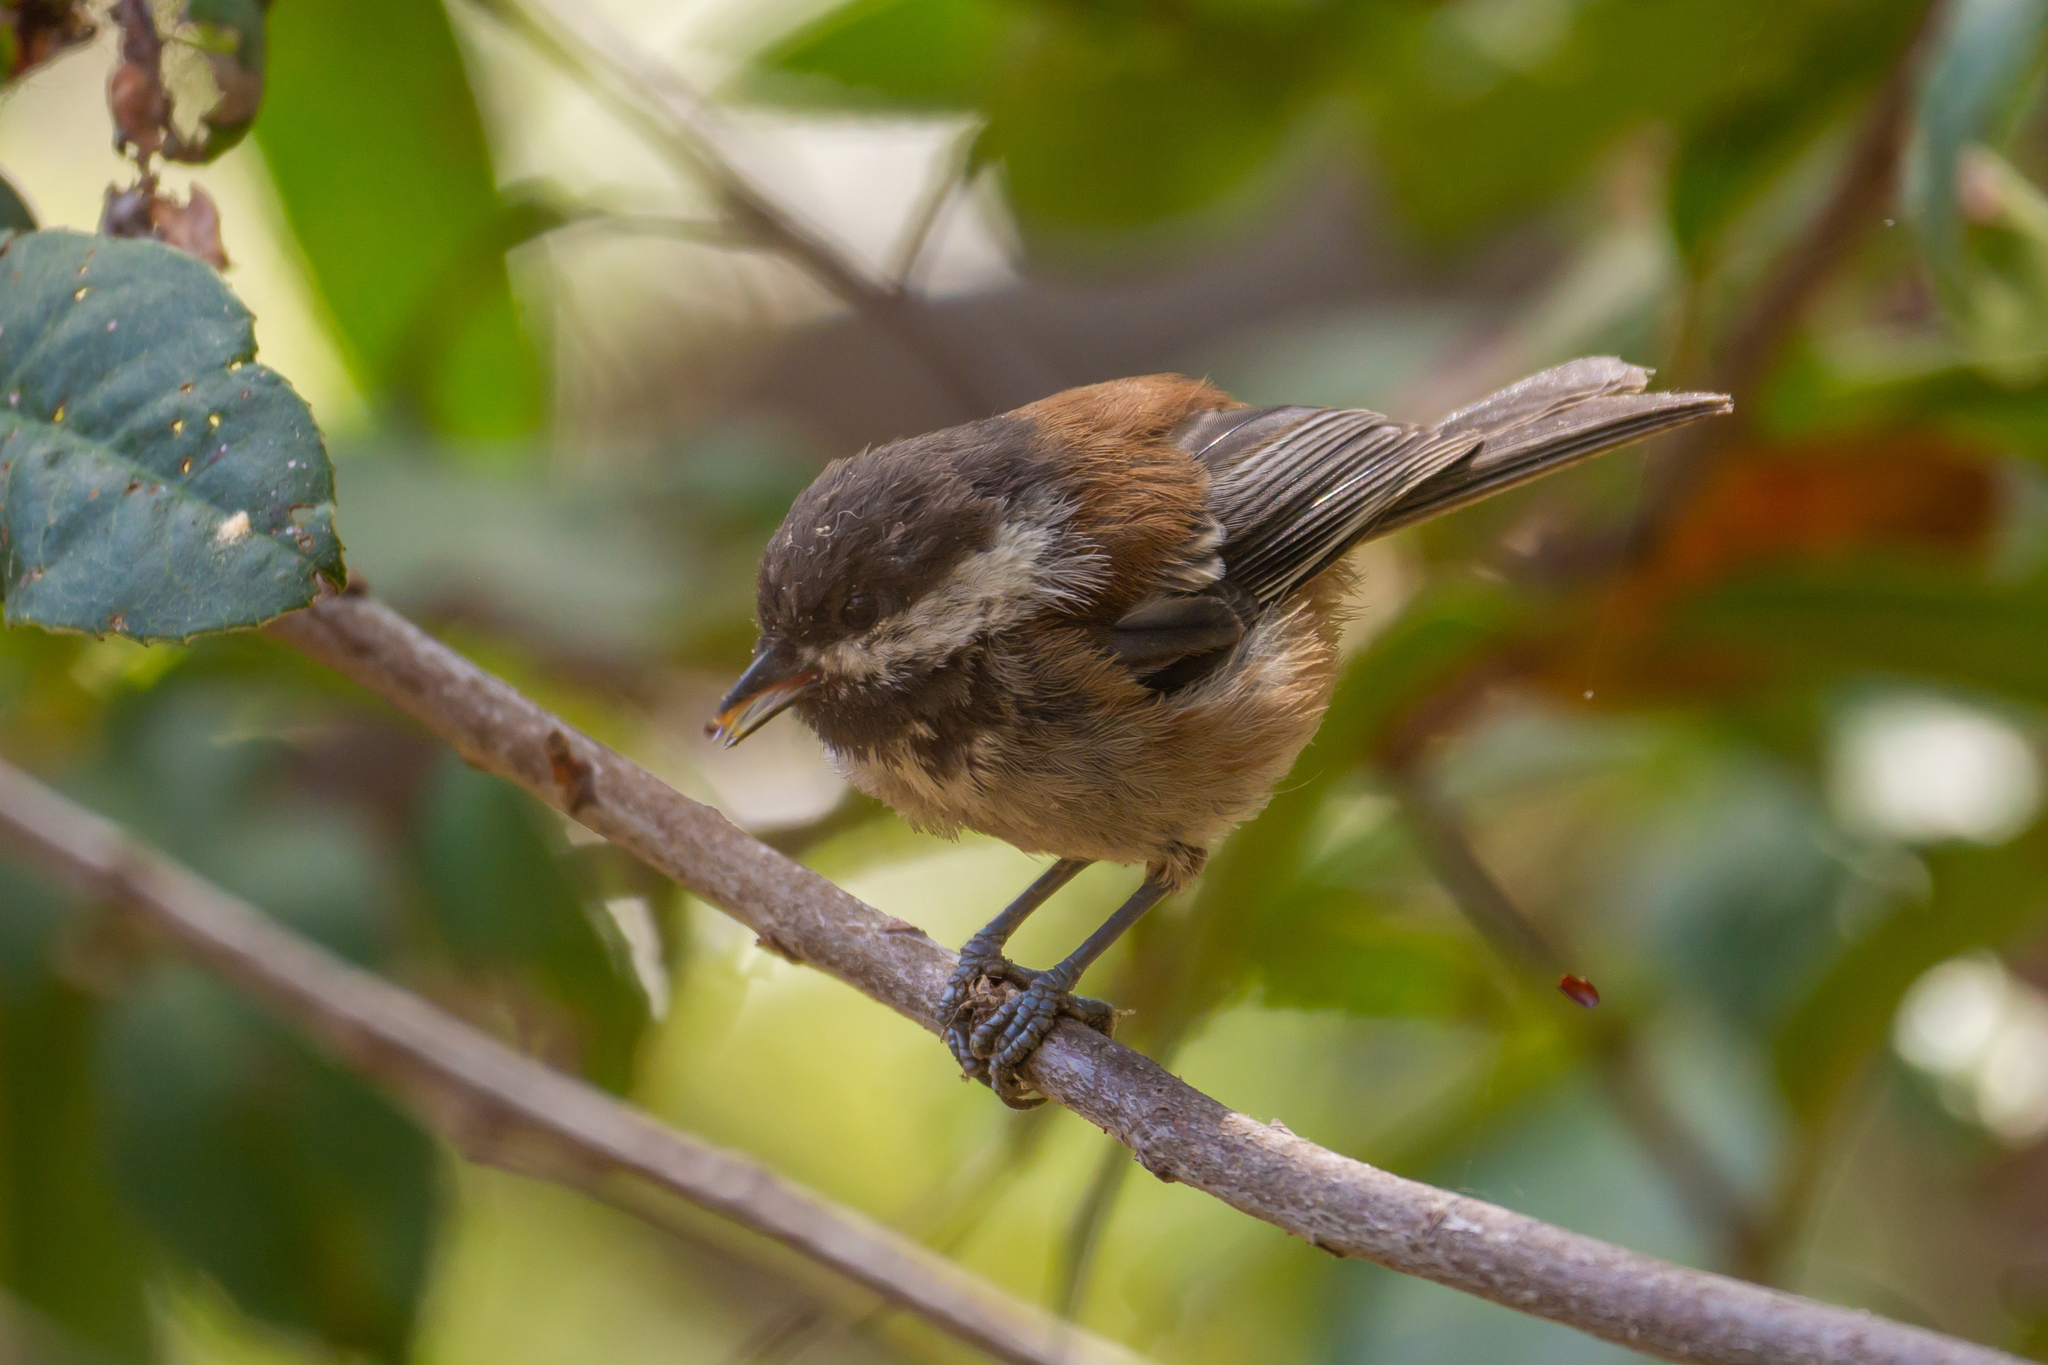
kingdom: Animalia
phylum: Chordata
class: Aves
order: Passeriformes
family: Paridae
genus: Poecile
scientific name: Poecile rufescens
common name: Chestnut-backed chickadee
